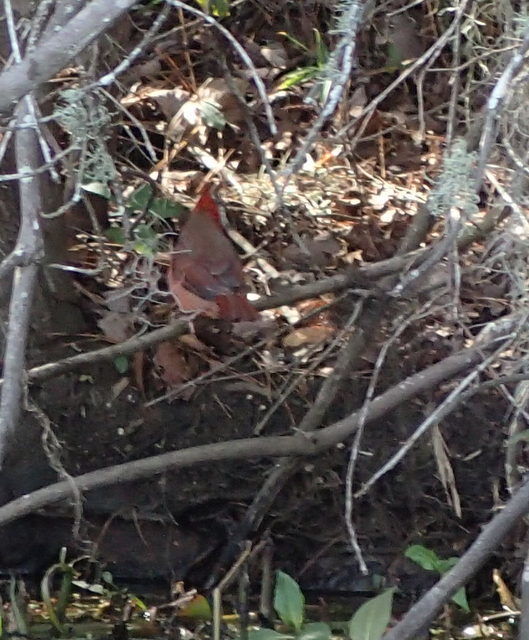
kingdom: Animalia
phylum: Chordata
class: Aves
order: Passeriformes
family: Cardinalidae
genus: Cardinalis
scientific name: Cardinalis cardinalis
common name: Northern cardinal
